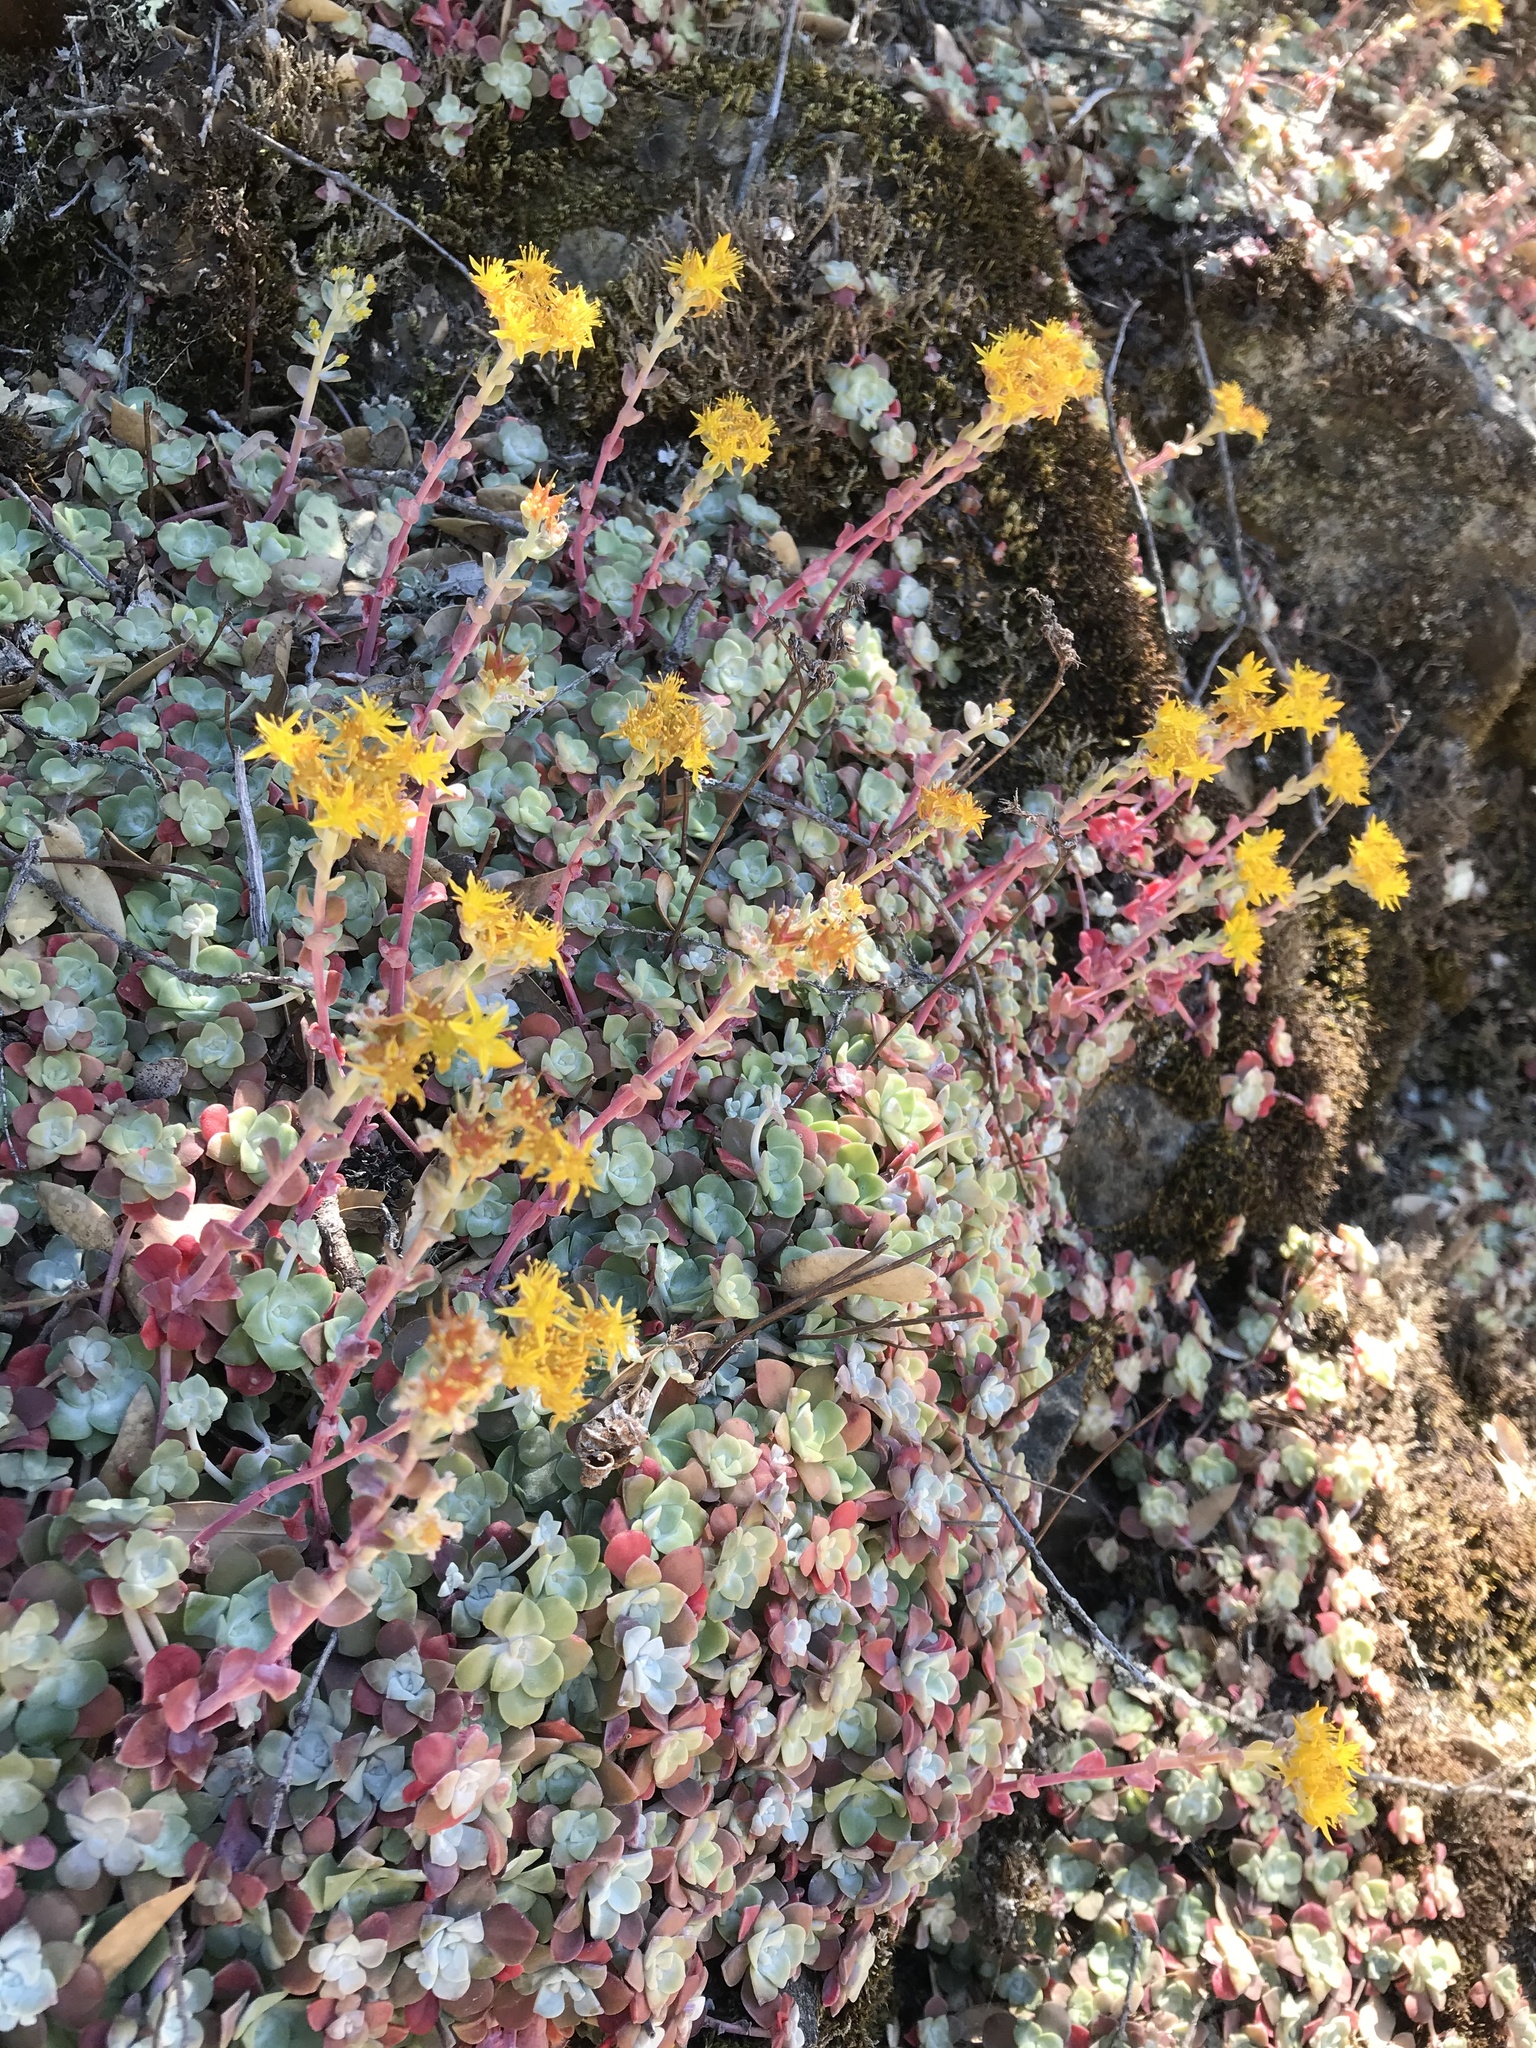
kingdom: Plantae
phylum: Tracheophyta
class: Magnoliopsida
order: Saxifragales
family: Crassulaceae
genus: Sedum
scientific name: Sedum spathulifolium
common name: Colorado stonecrop
